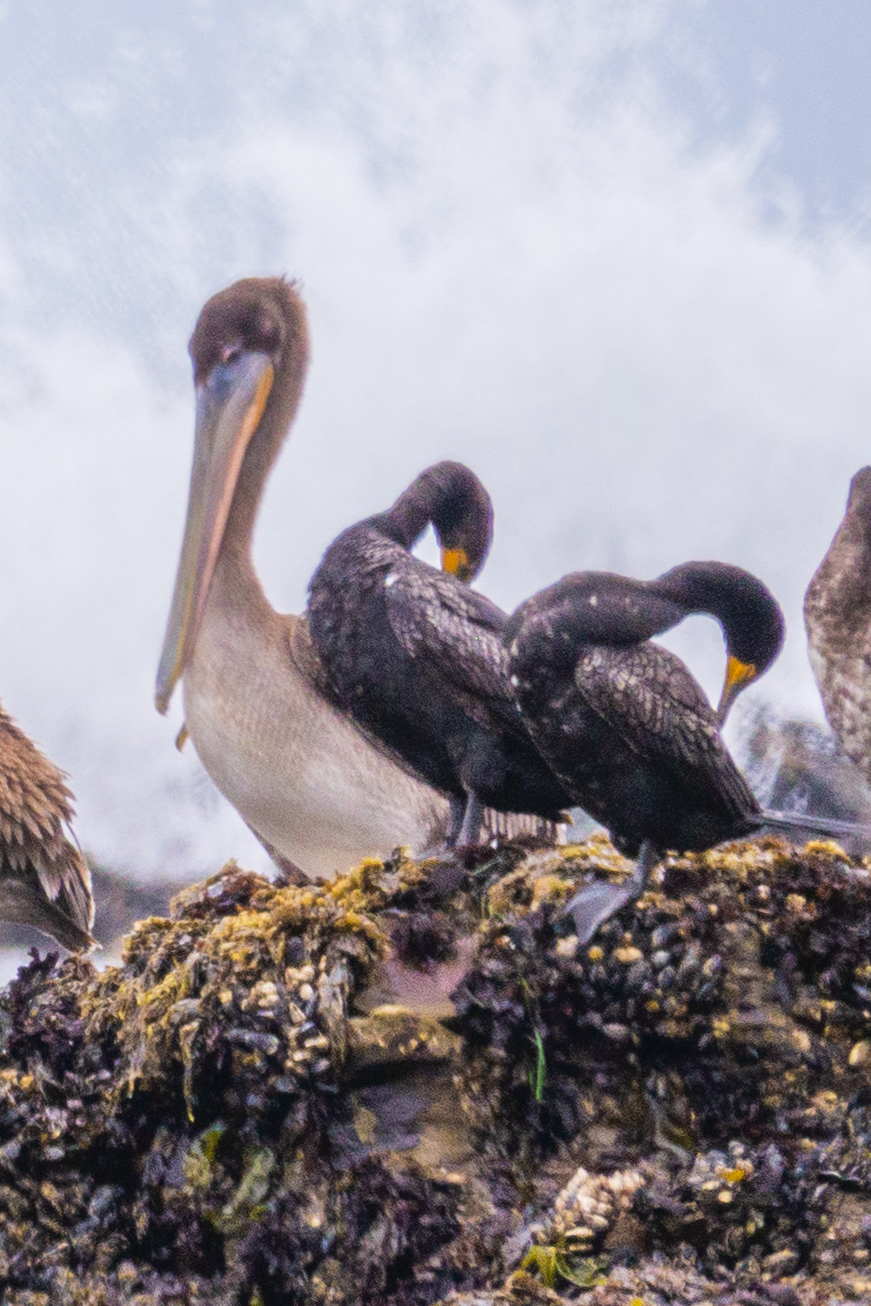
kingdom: Animalia
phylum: Chordata
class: Aves
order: Suliformes
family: Phalacrocoracidae
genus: Phalacrocorax
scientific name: Phalacrocorax auritus
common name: Double-crested cormorant
